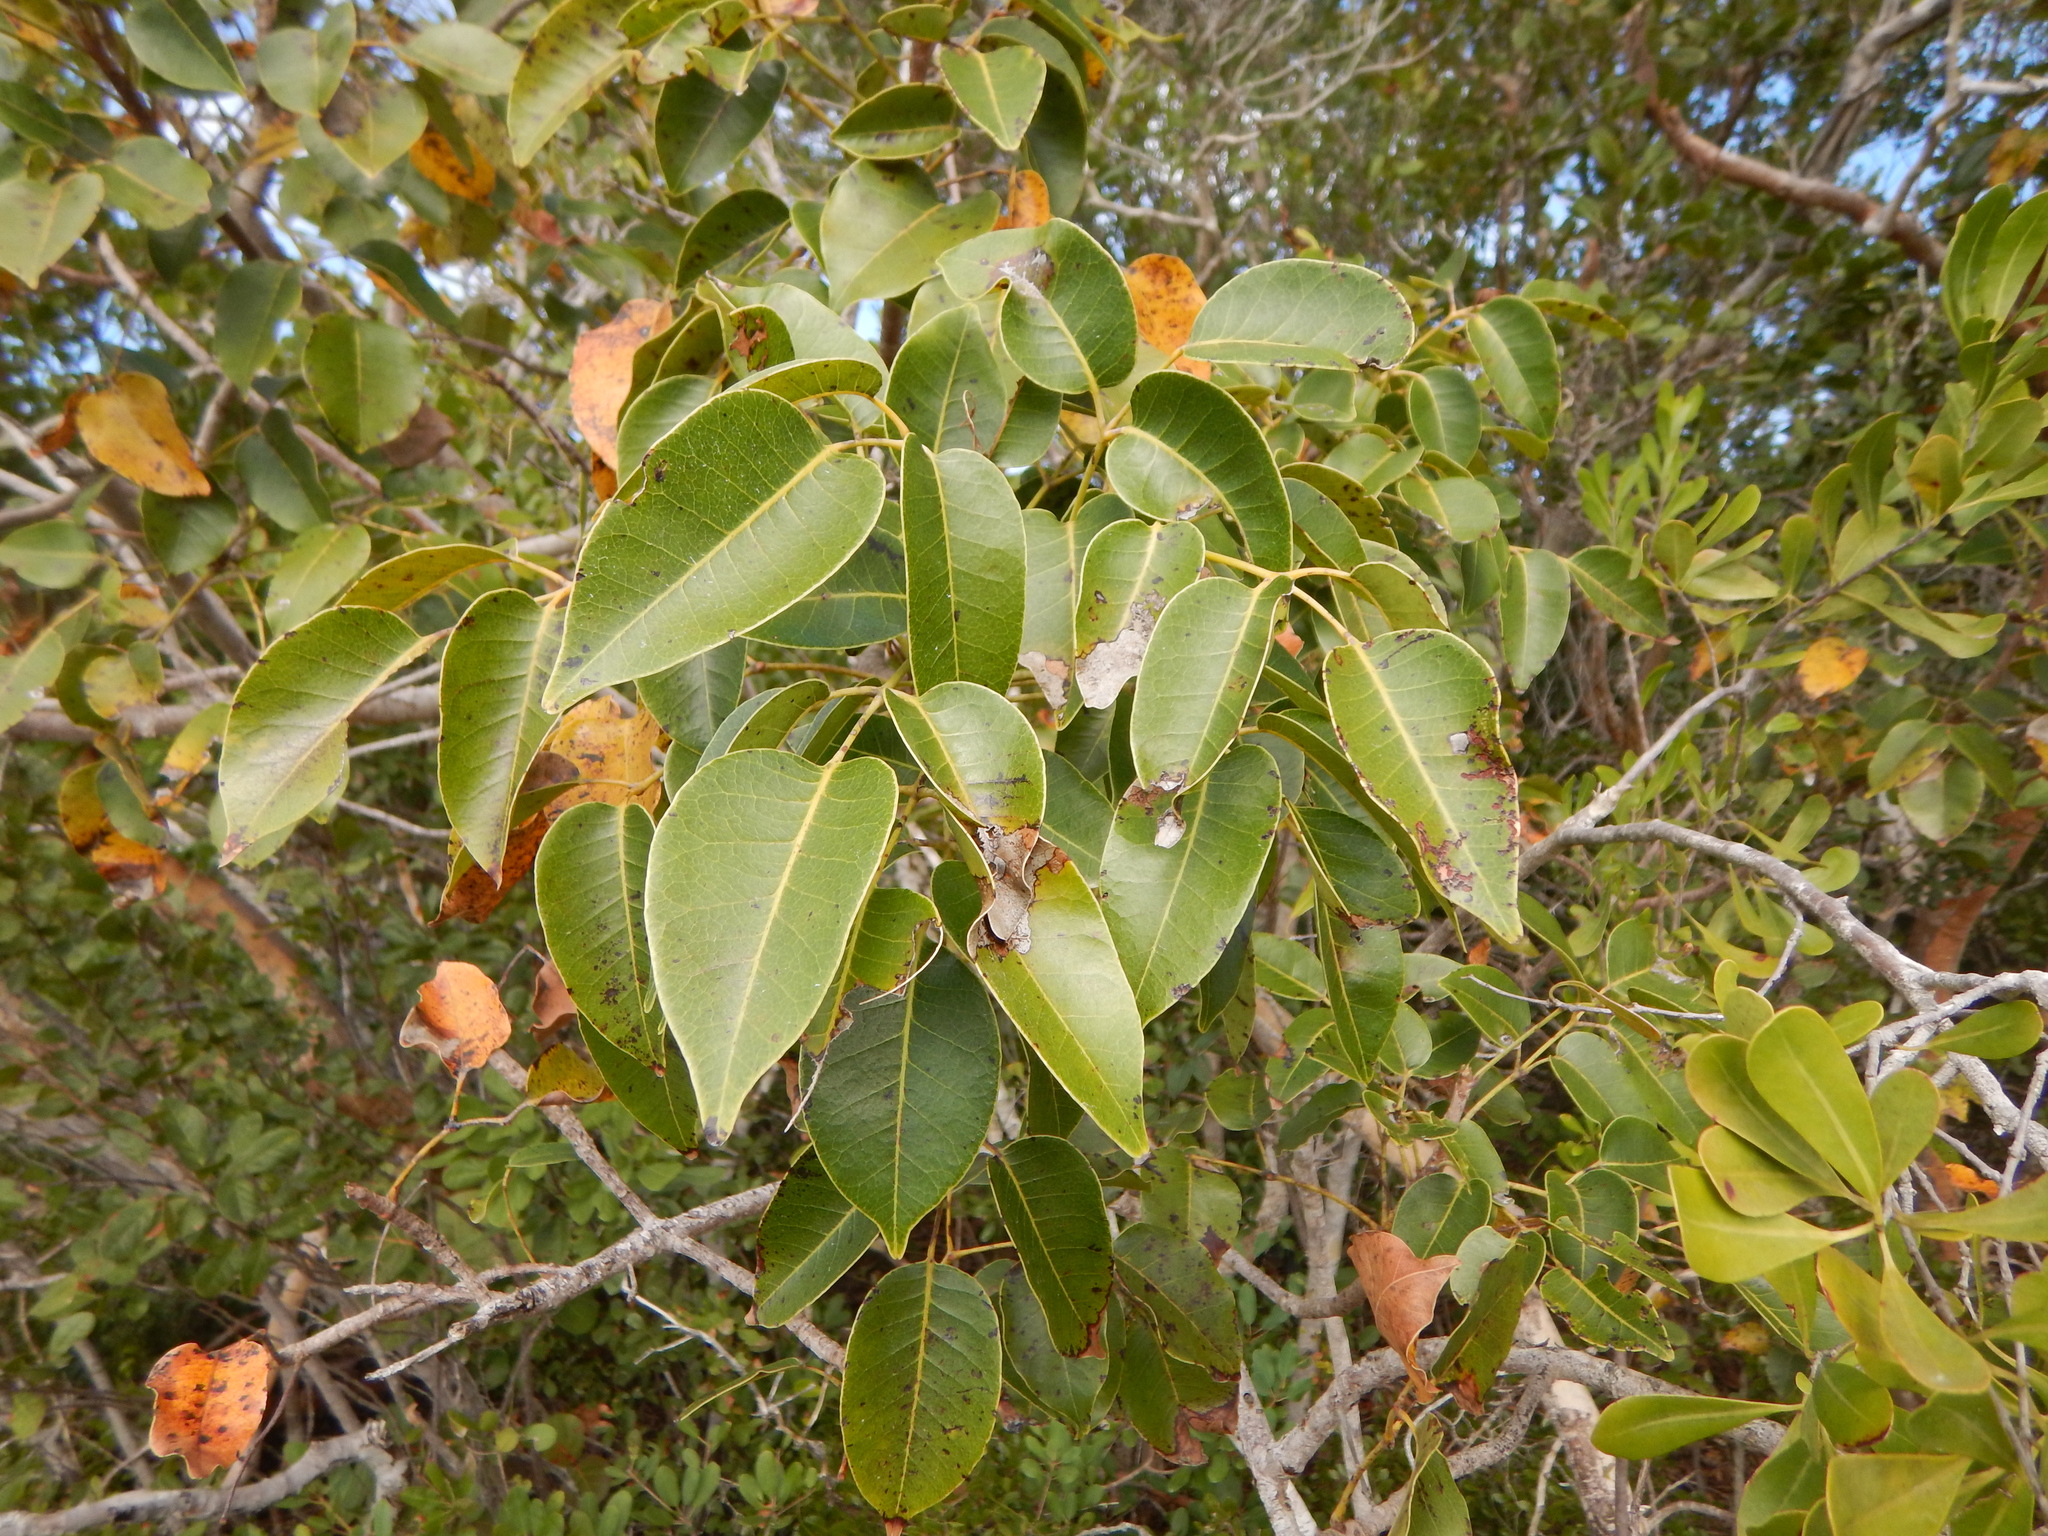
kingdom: Plantae
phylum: Tracheophyta
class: Magnoliopsida
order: Sapindales
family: Anacardiaceae
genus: Metopium
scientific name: Metopium toxiferum
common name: Florida poisontree
